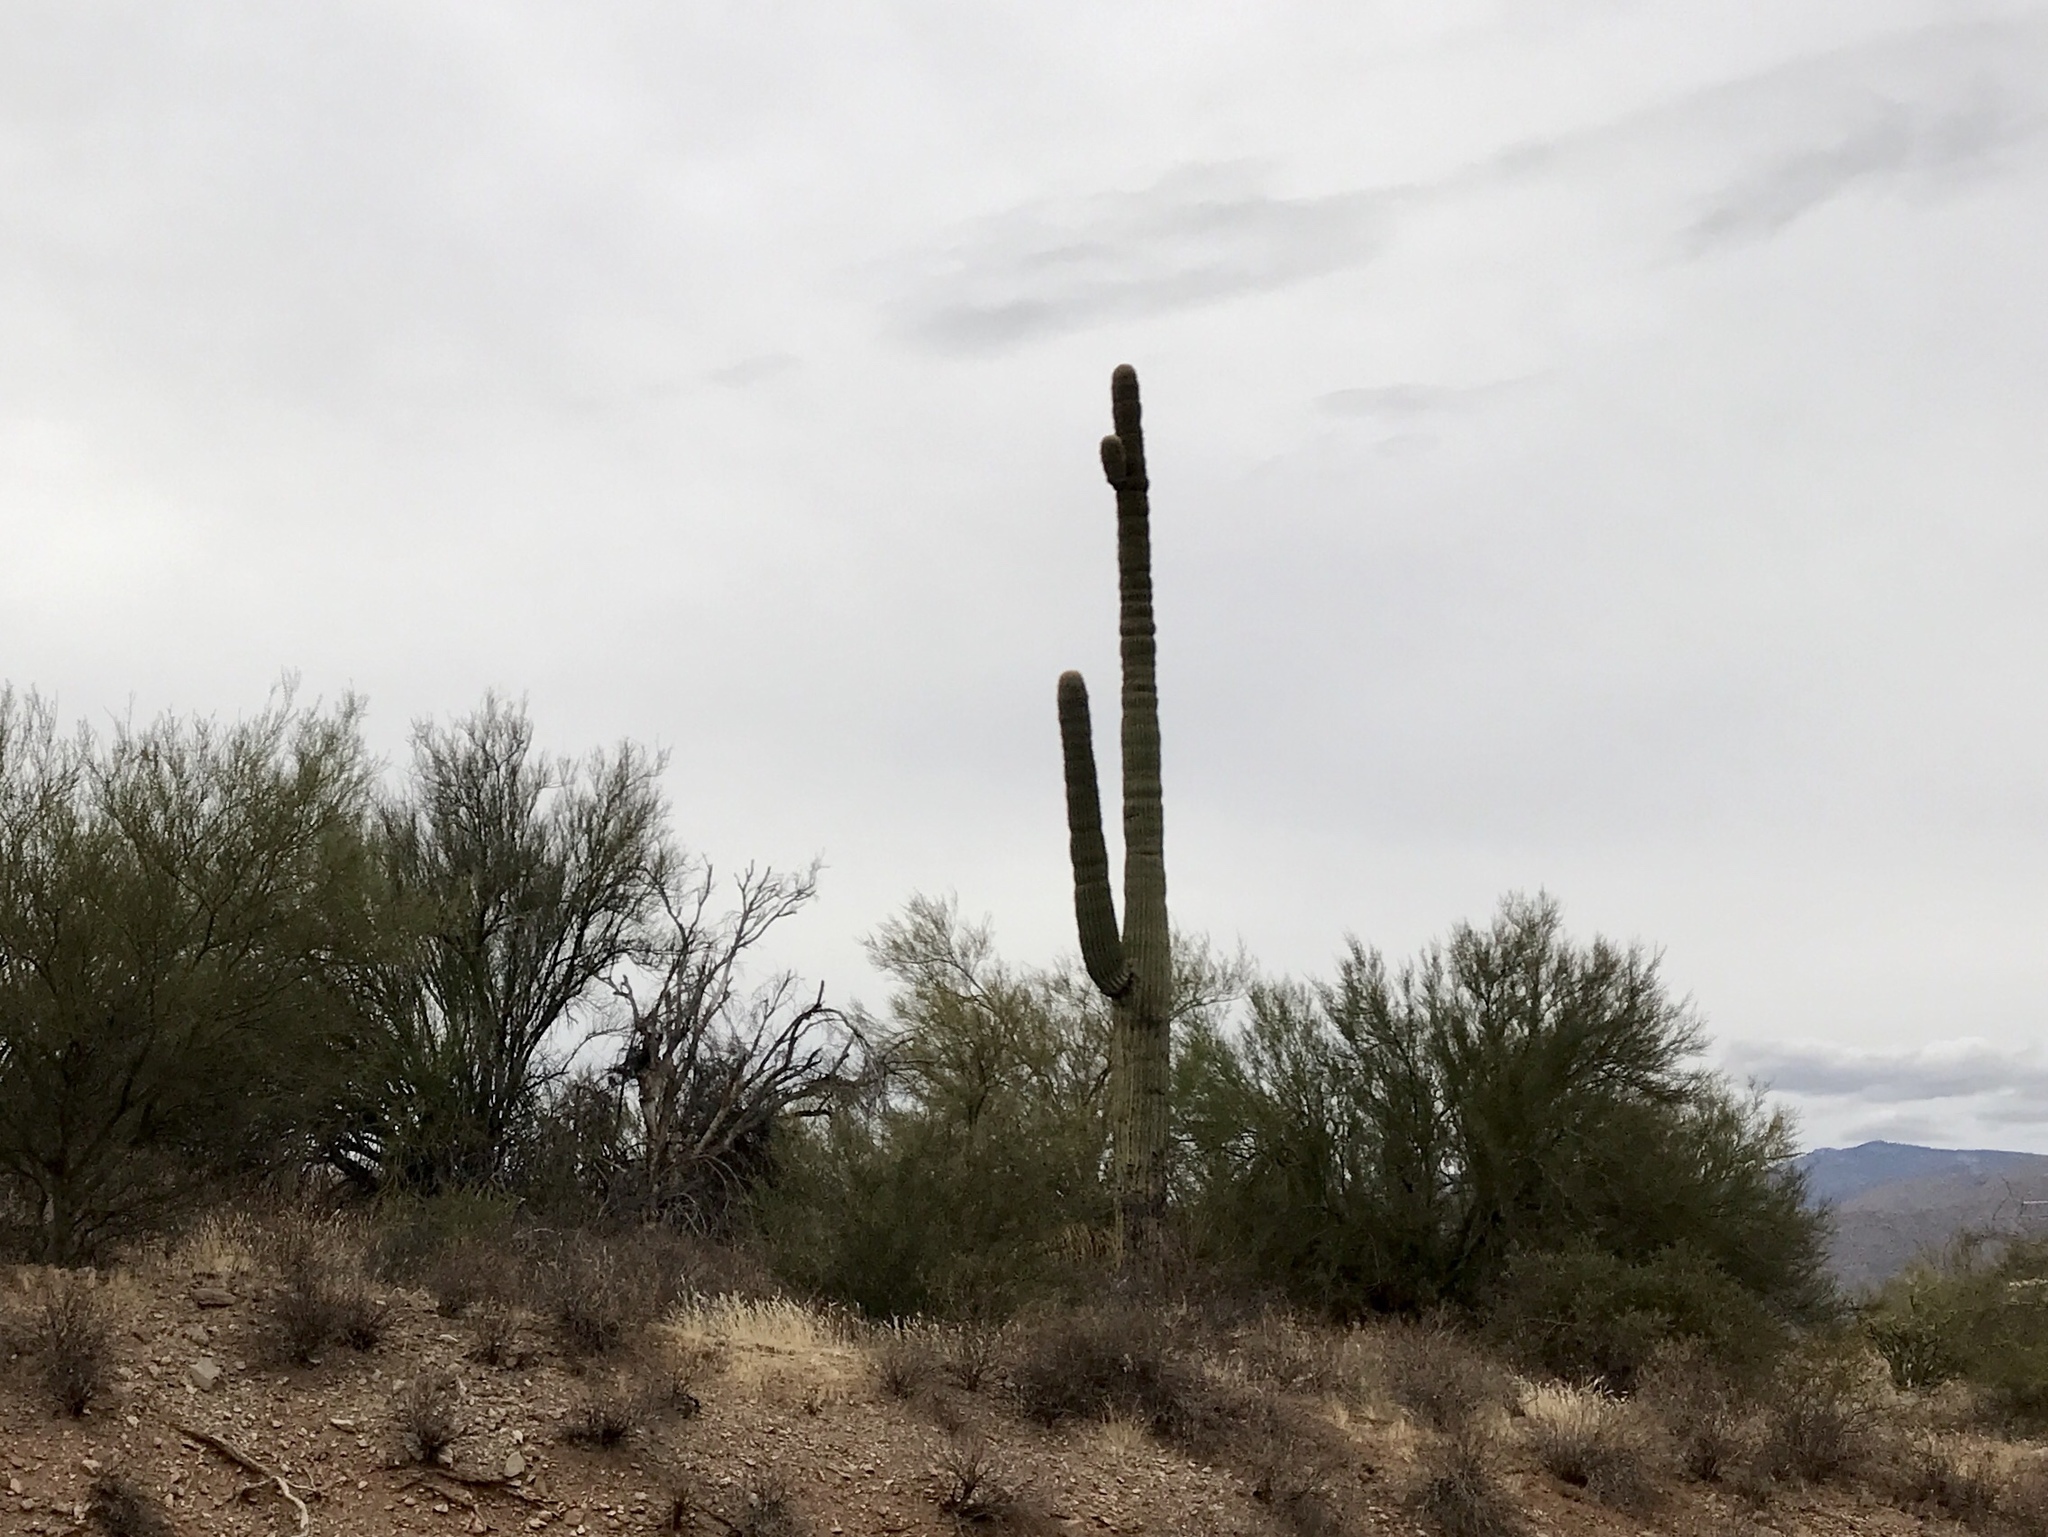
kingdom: Plantae
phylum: Tracheophyta
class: Magnoliopsida
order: Caryophyllales
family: Cactaceae
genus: Carnegiea
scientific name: Carnegiea gigantea
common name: Saguaro
